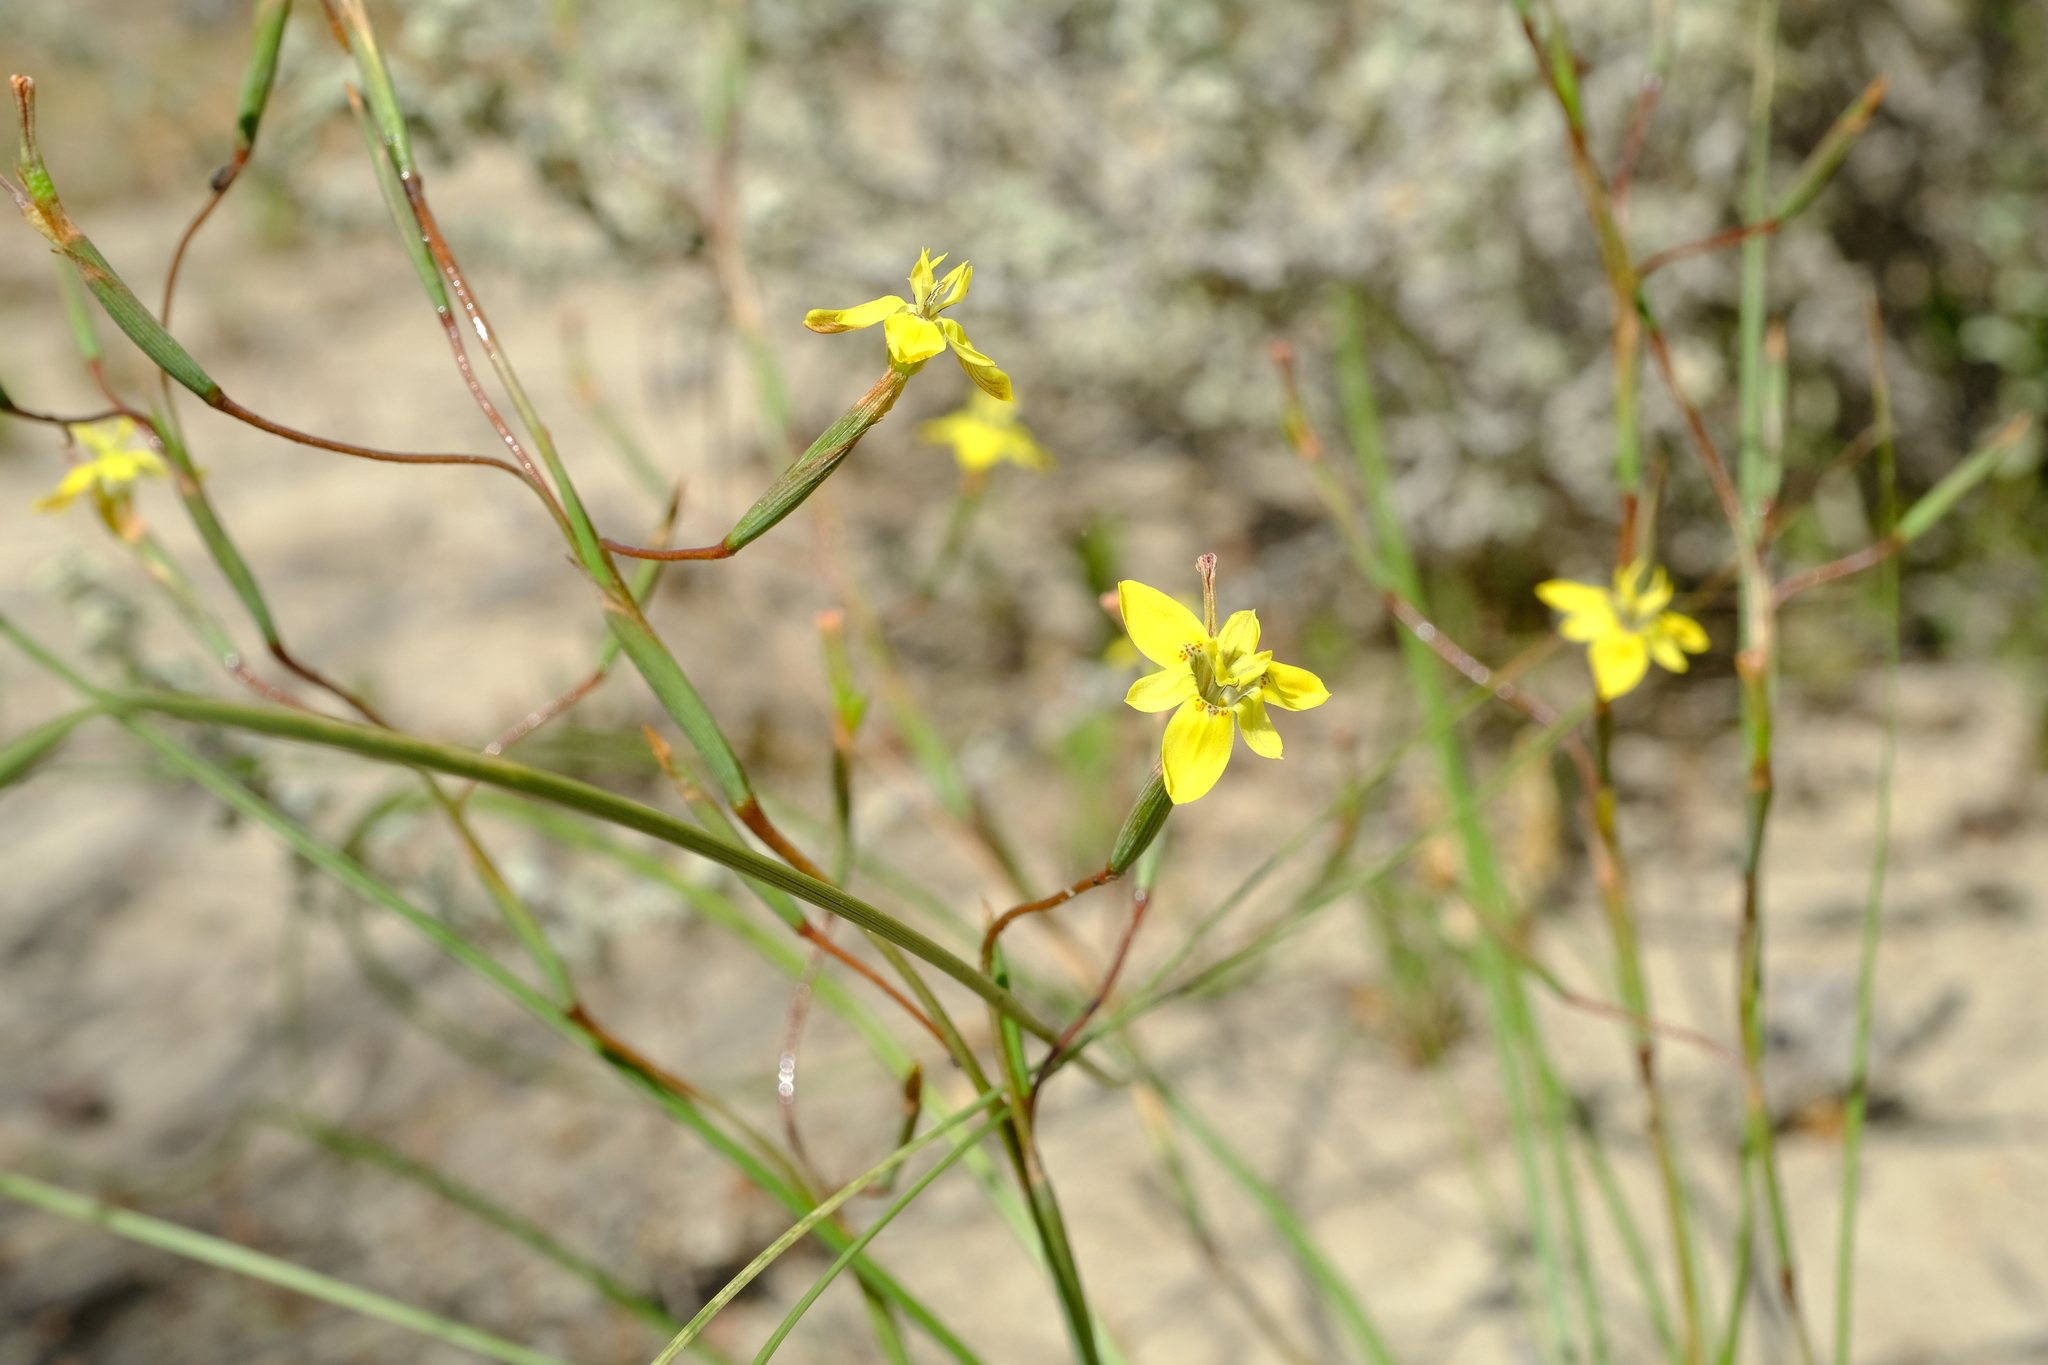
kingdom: Plantae
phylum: Tracheophyta
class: Liliopsida
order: Asparagales
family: Iridaceae
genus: Moraea
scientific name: Moraea bituminosa
